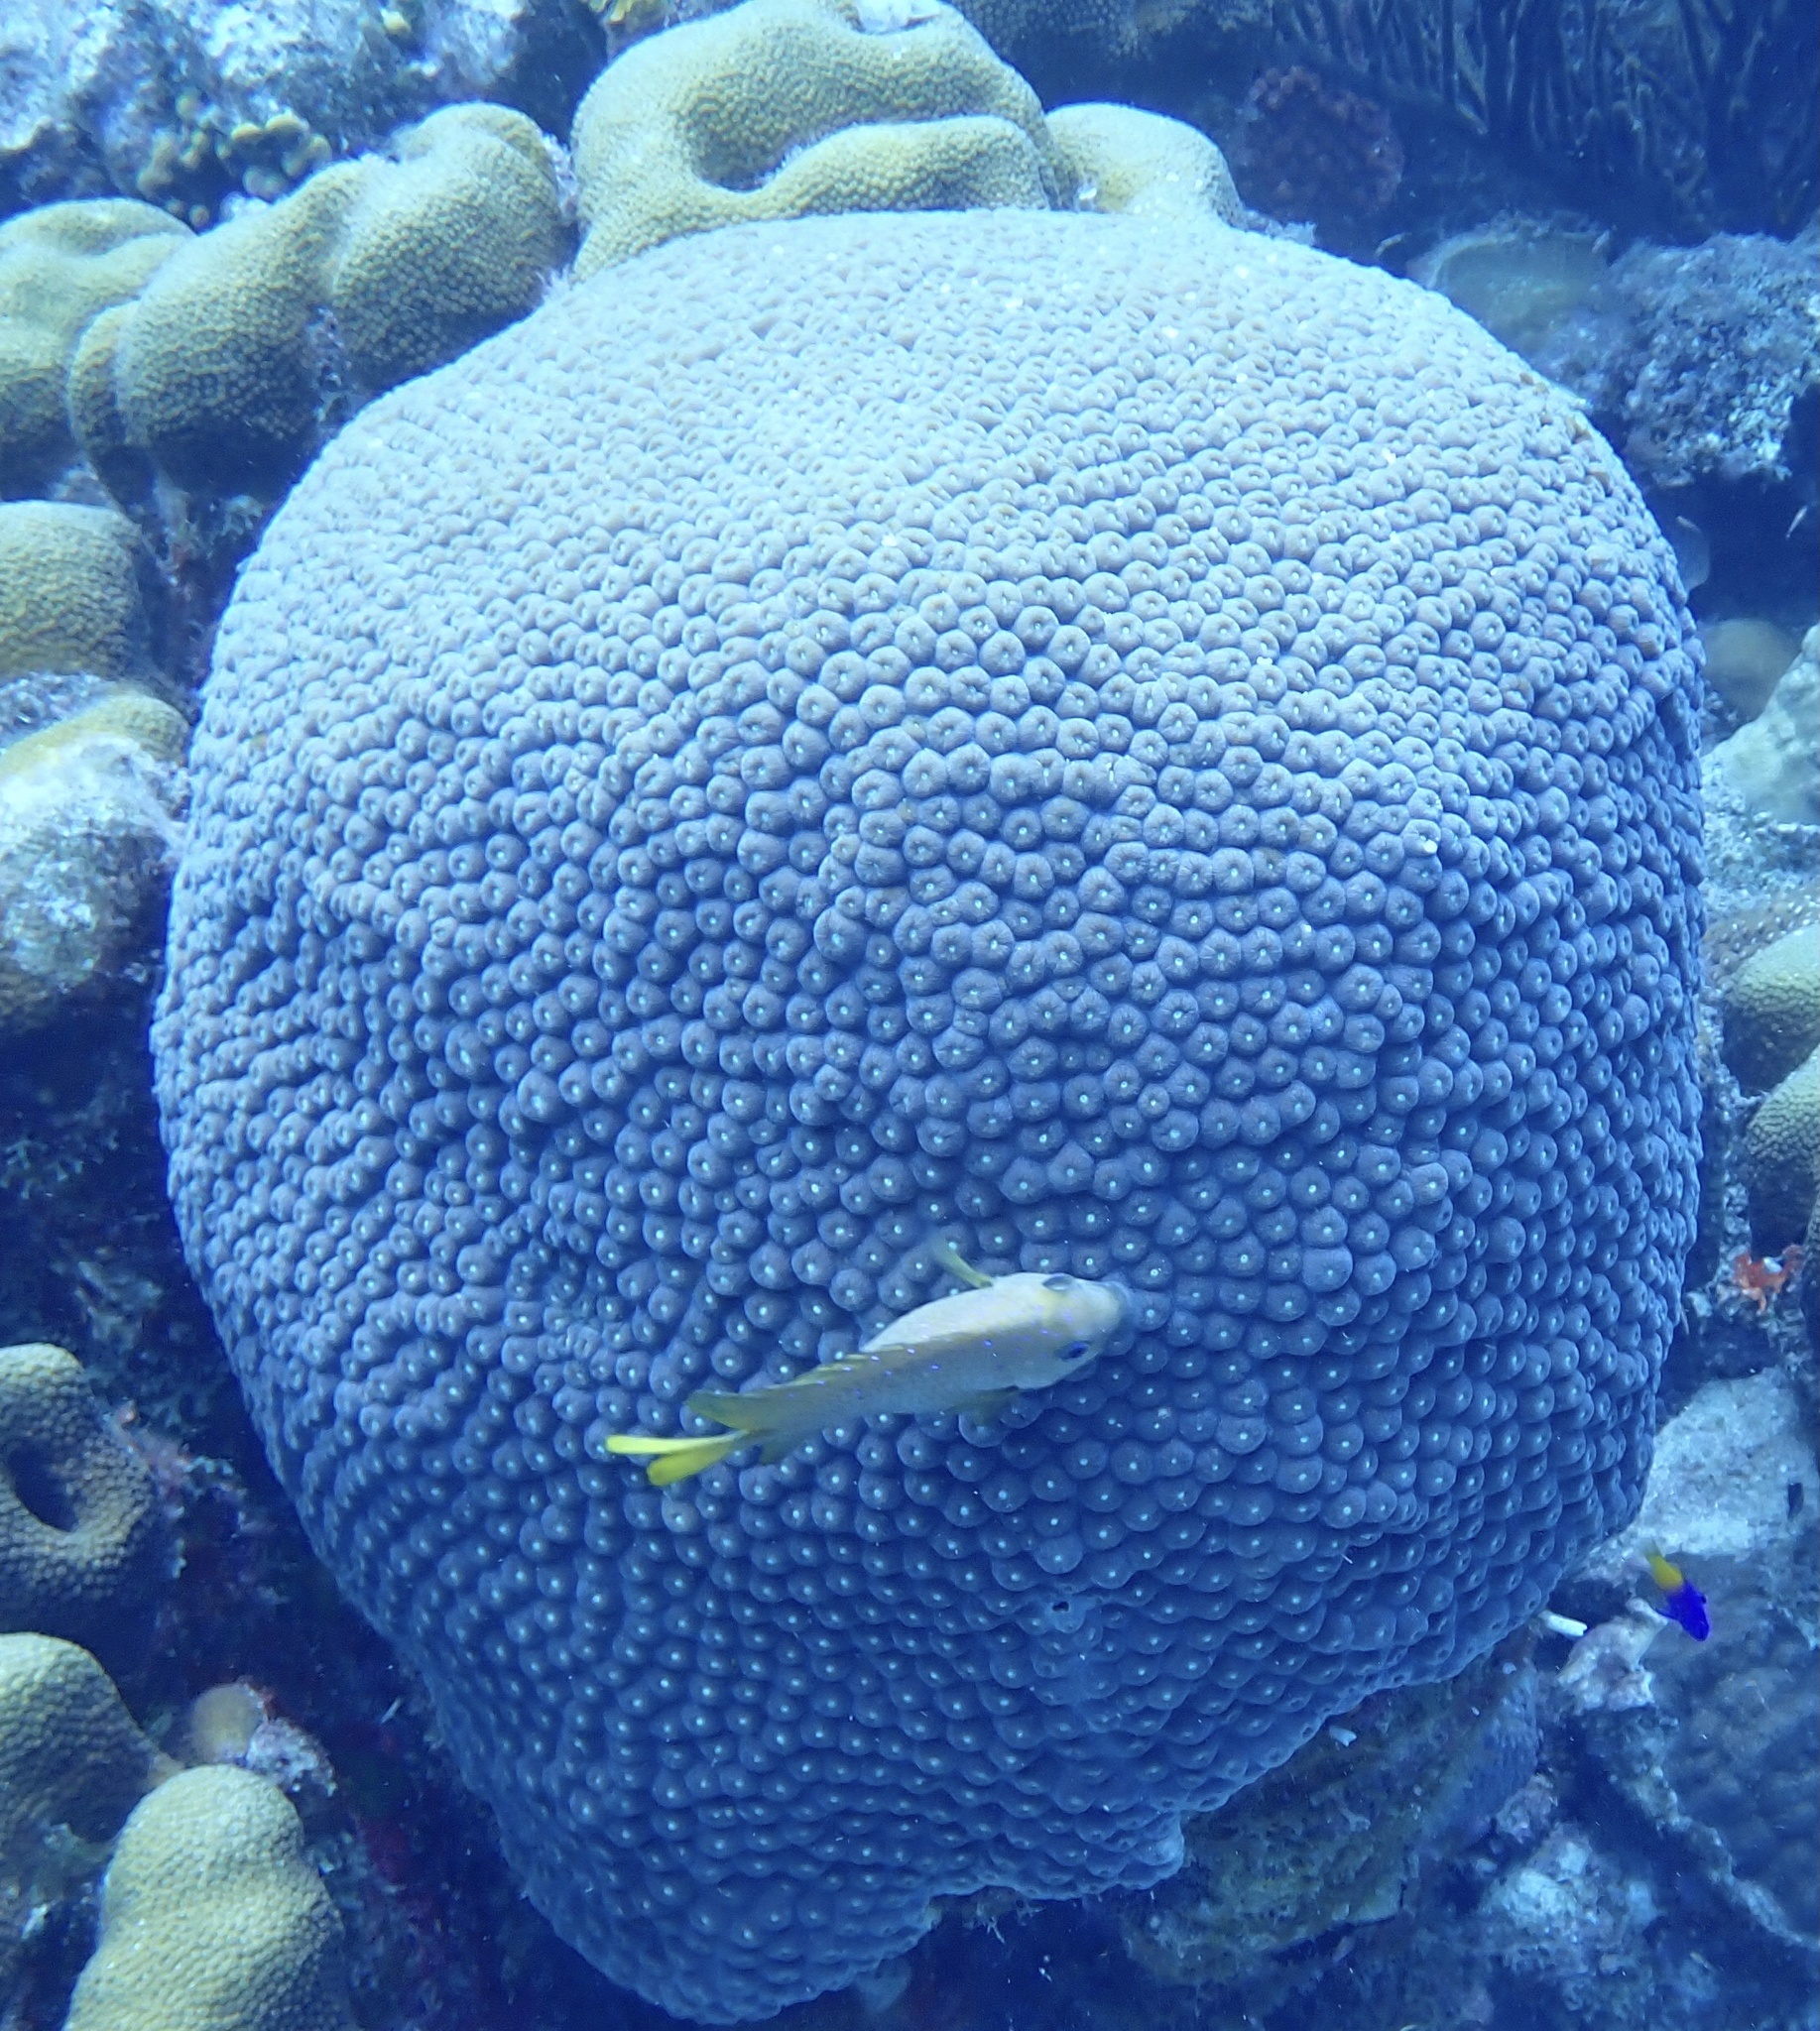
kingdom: Animalia
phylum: Cnidaria
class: Anthozoa
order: Scleractinia
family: Montastraeidae
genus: Montastraea
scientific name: Montastraea cavernosa
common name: Great star coral
